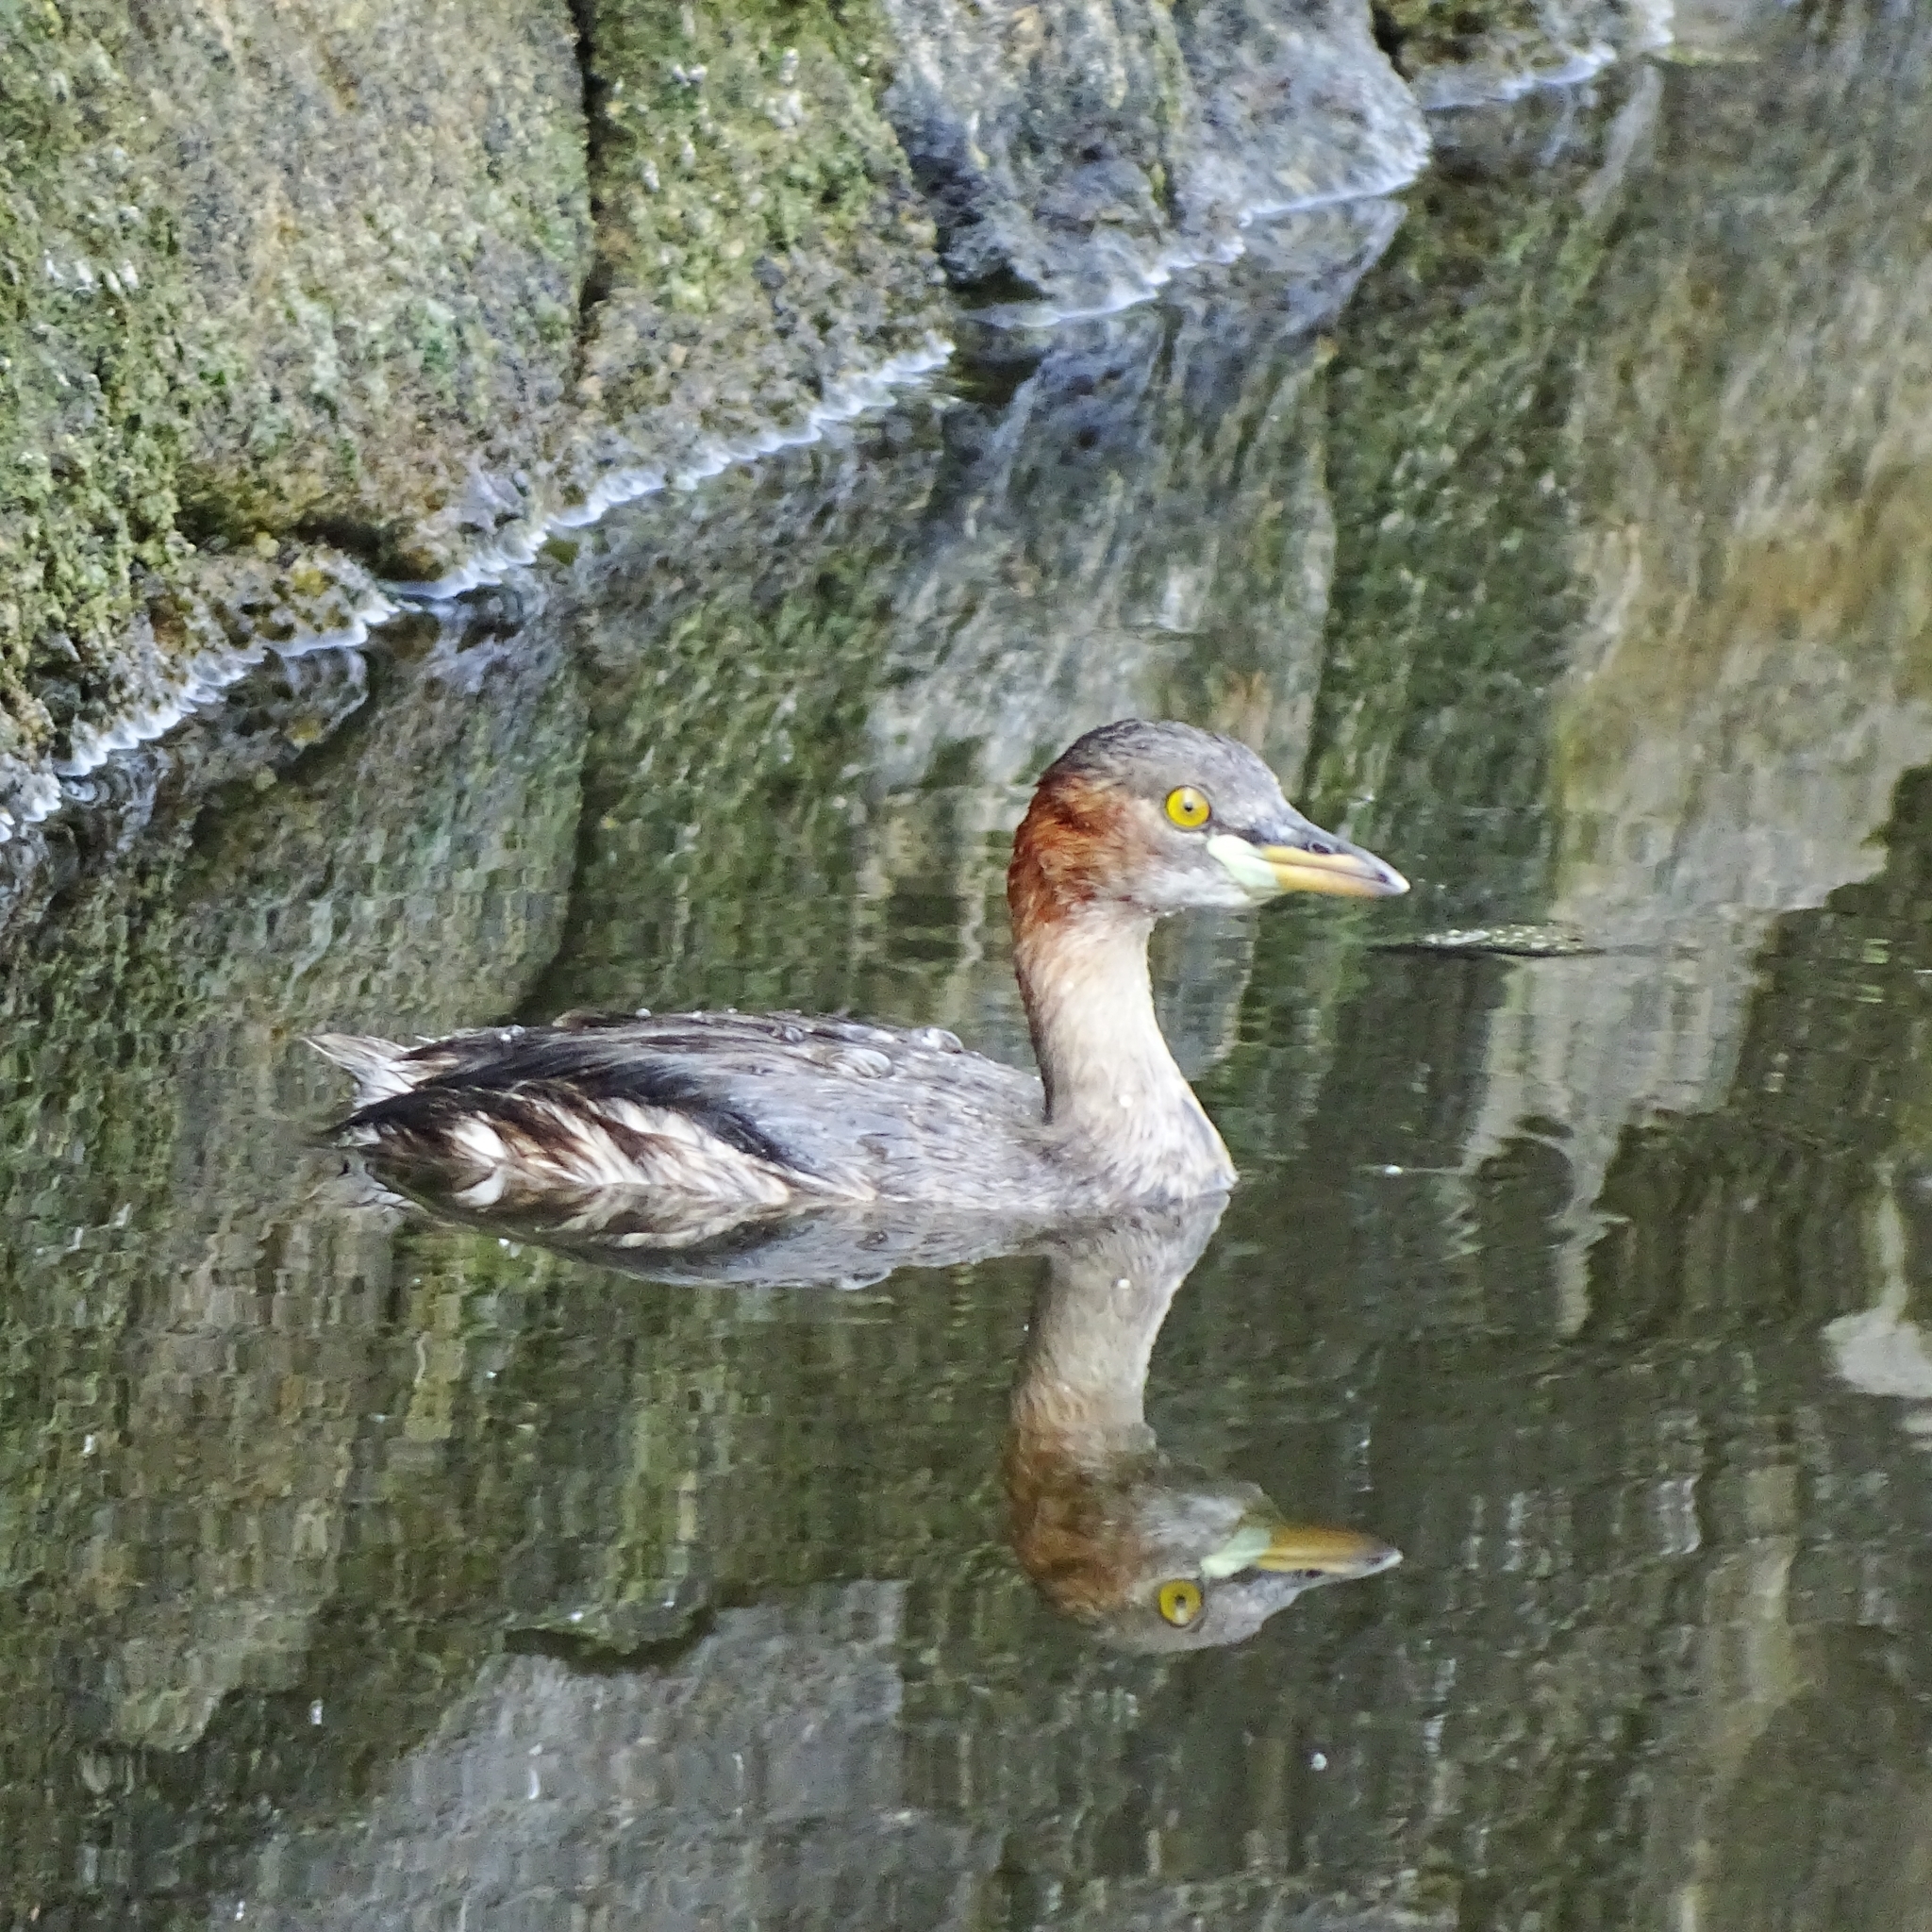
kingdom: Animalia
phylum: Chordata
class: Aves
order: Podicipediformes
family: Podicipedidae
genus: Tachybaptus
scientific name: Tachybaptus ruficollis
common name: Little grebe
